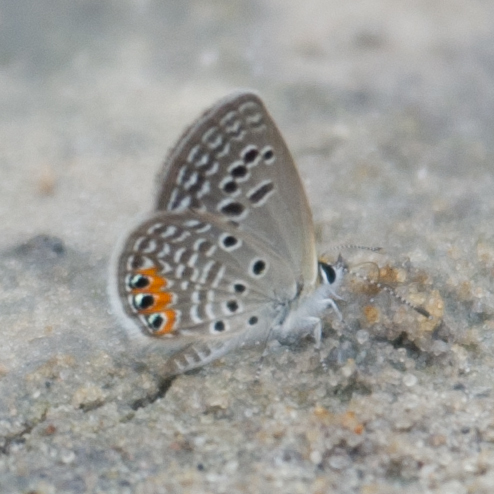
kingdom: Animalia
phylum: Arthropoda
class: Insecta
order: Lepidoptera
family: Lycaenidae
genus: Freyeria
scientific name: Freyeria trochylus
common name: Grass jewel
